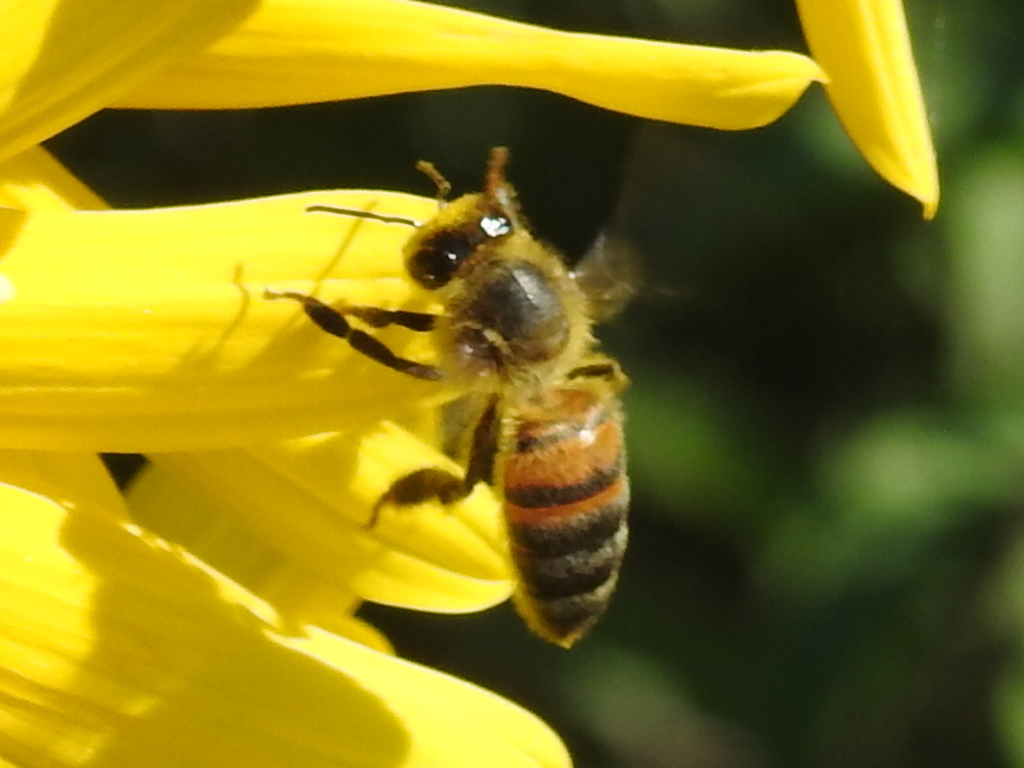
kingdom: Animalia
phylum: Arthropoda
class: Insecta
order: Hymenoptera
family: Apidae
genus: Apis
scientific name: Apis mellifera
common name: Honey bee
